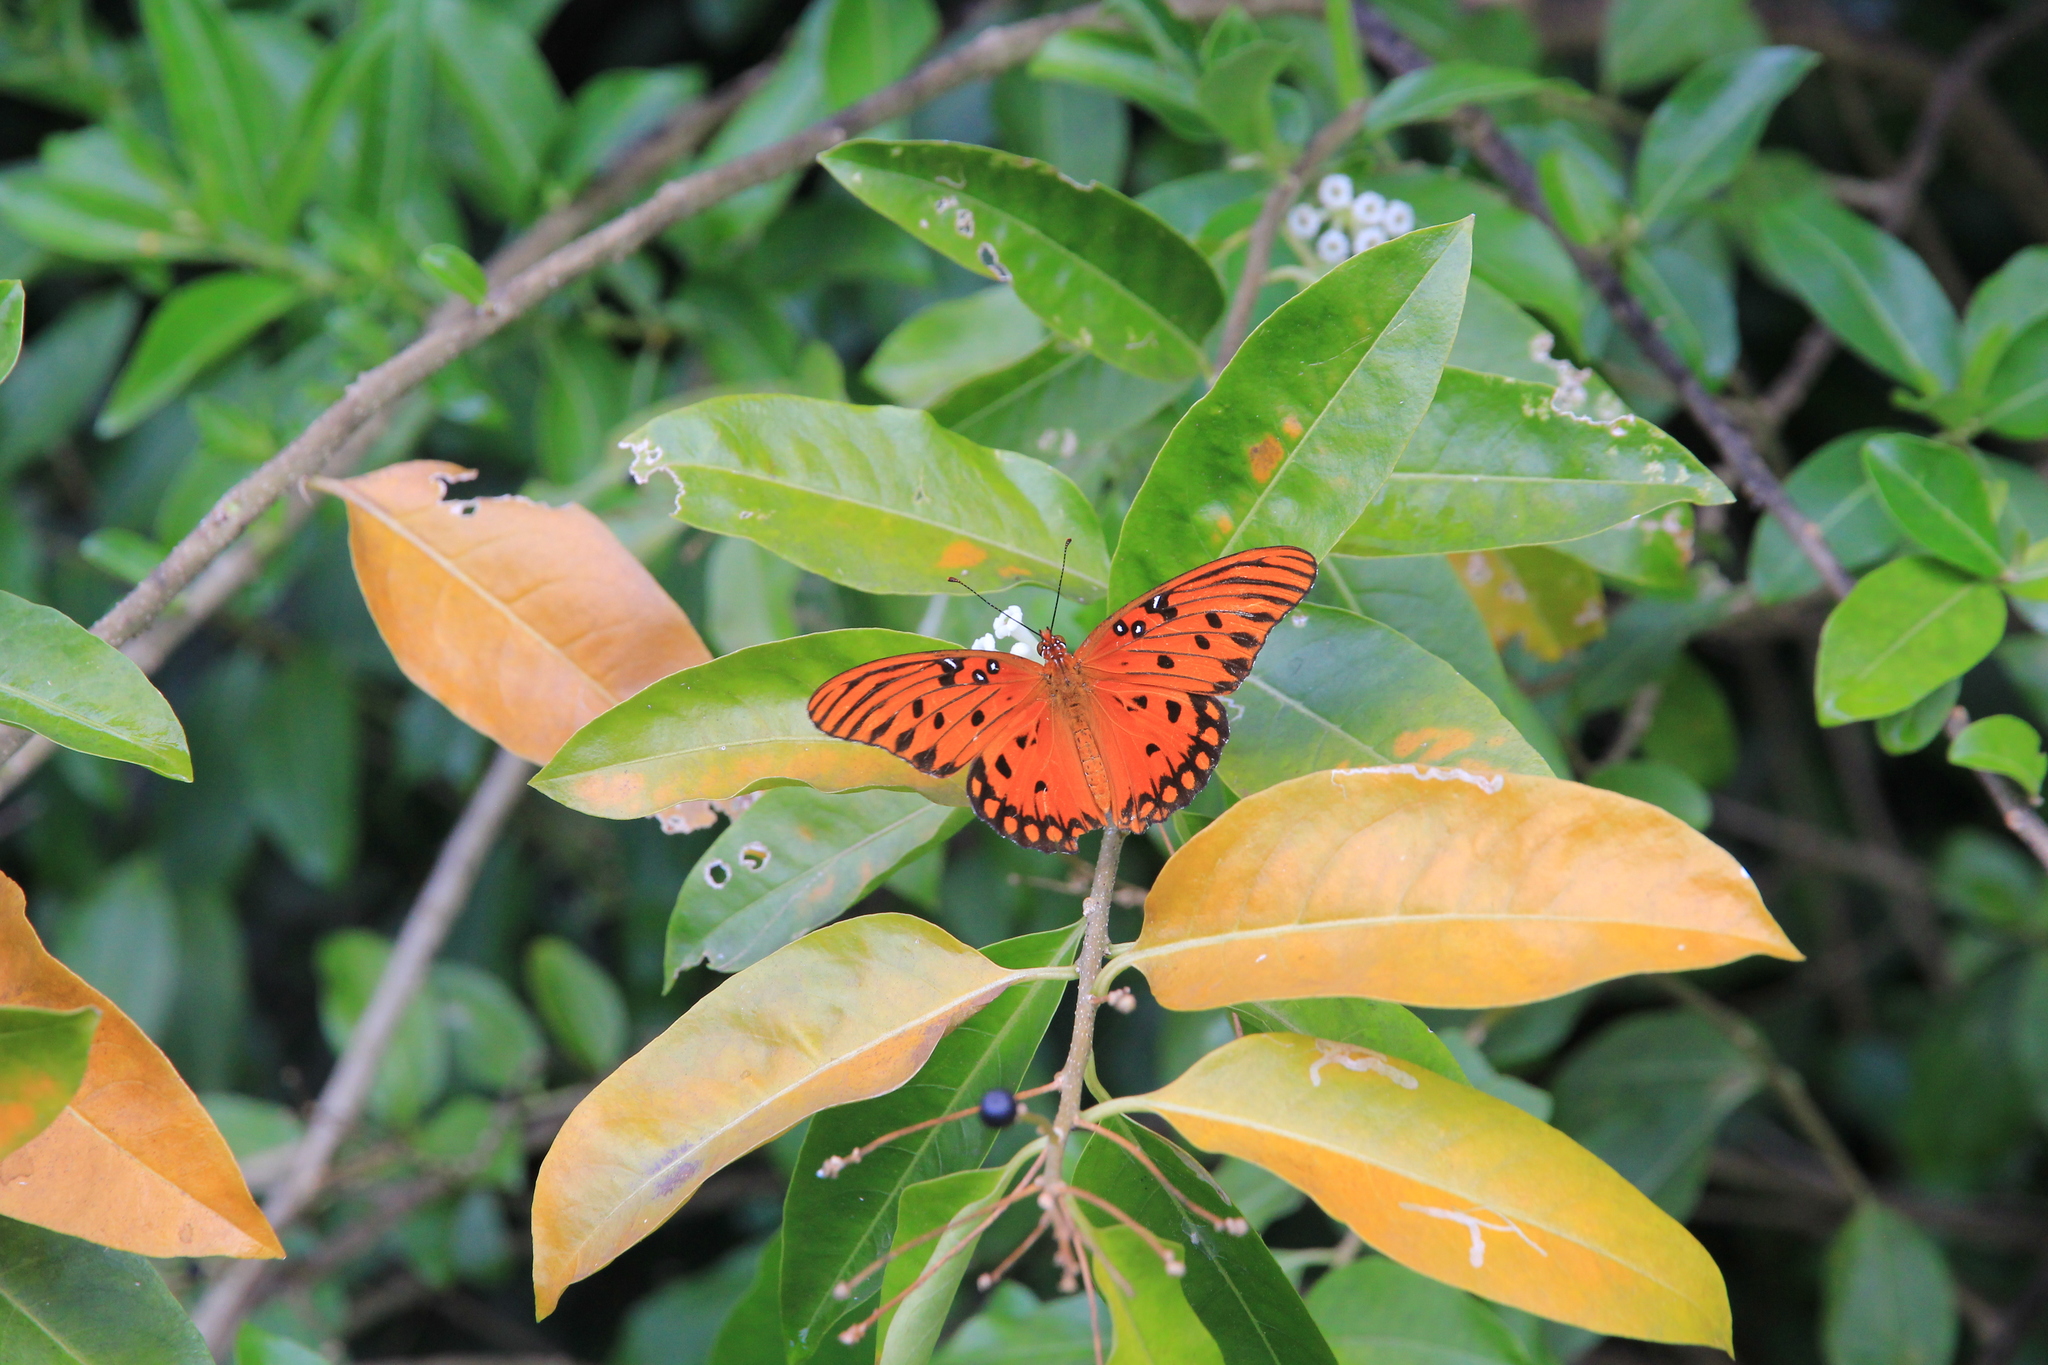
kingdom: Animalia
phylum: Arthropoda
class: Insecta
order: Lepidoptera
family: Nymphalidae
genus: Dione
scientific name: Dione vanillae
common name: Gulf fritillary
